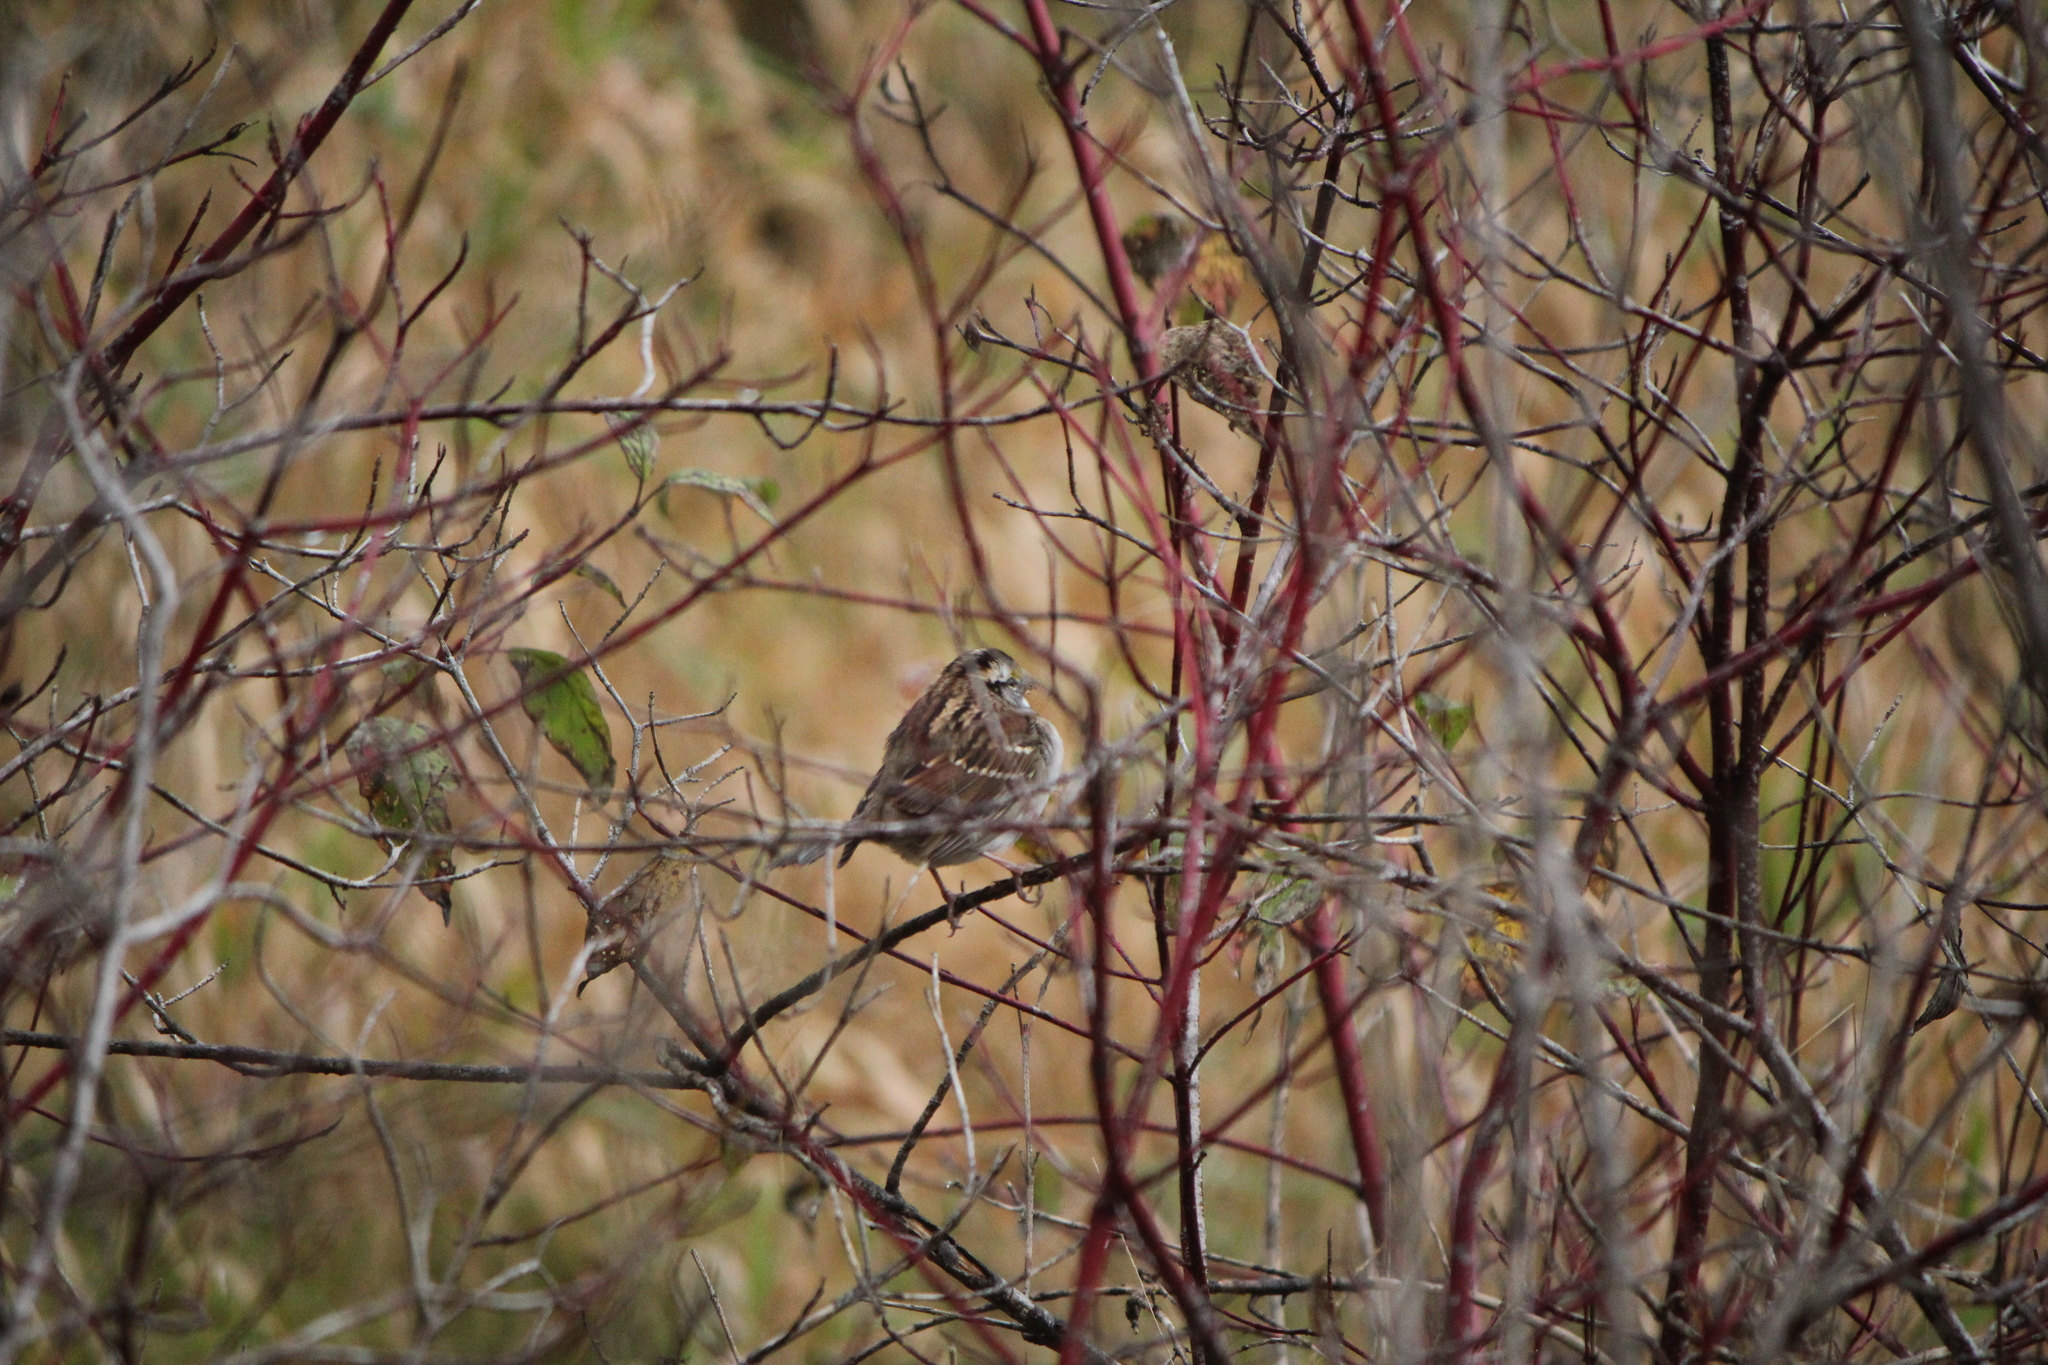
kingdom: Animalia
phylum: Chordata
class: Aves
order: Passeriformes
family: Passerellidae
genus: Zonotrichia
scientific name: Zonotrichia albicollis
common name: White-throated sparrow
